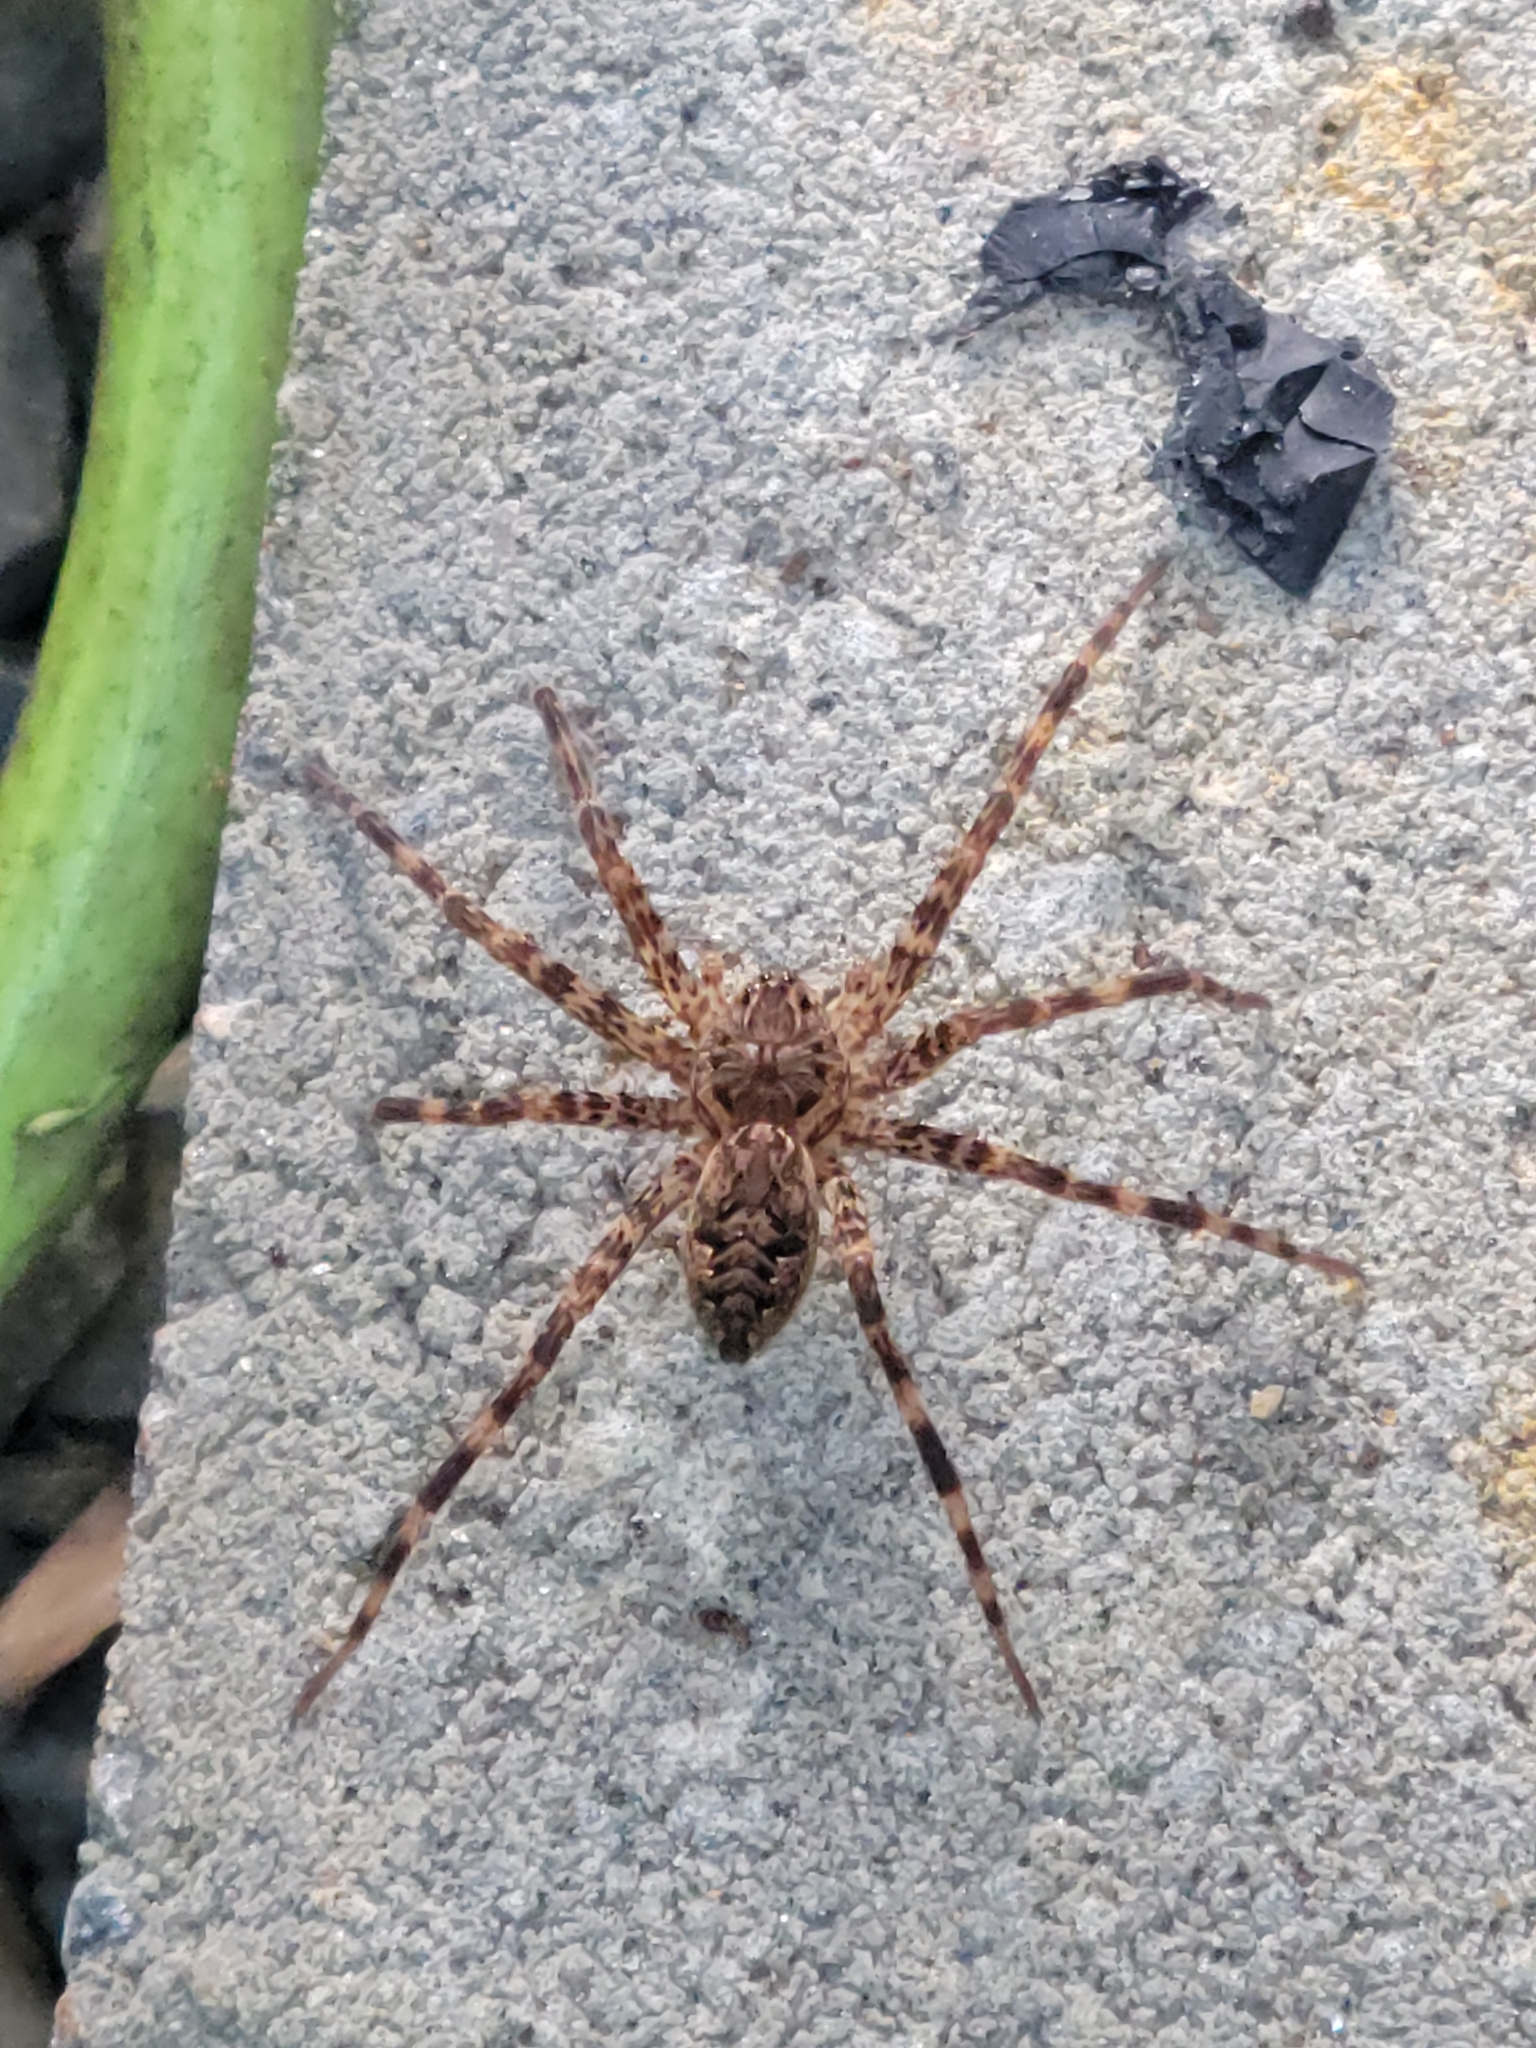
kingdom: Animalia
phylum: Arthropoda
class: Arachnida
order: Araneae
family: Pisauridae
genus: Dolomedes
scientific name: Dolomedes tenebrosus
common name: Dark fishing spider
